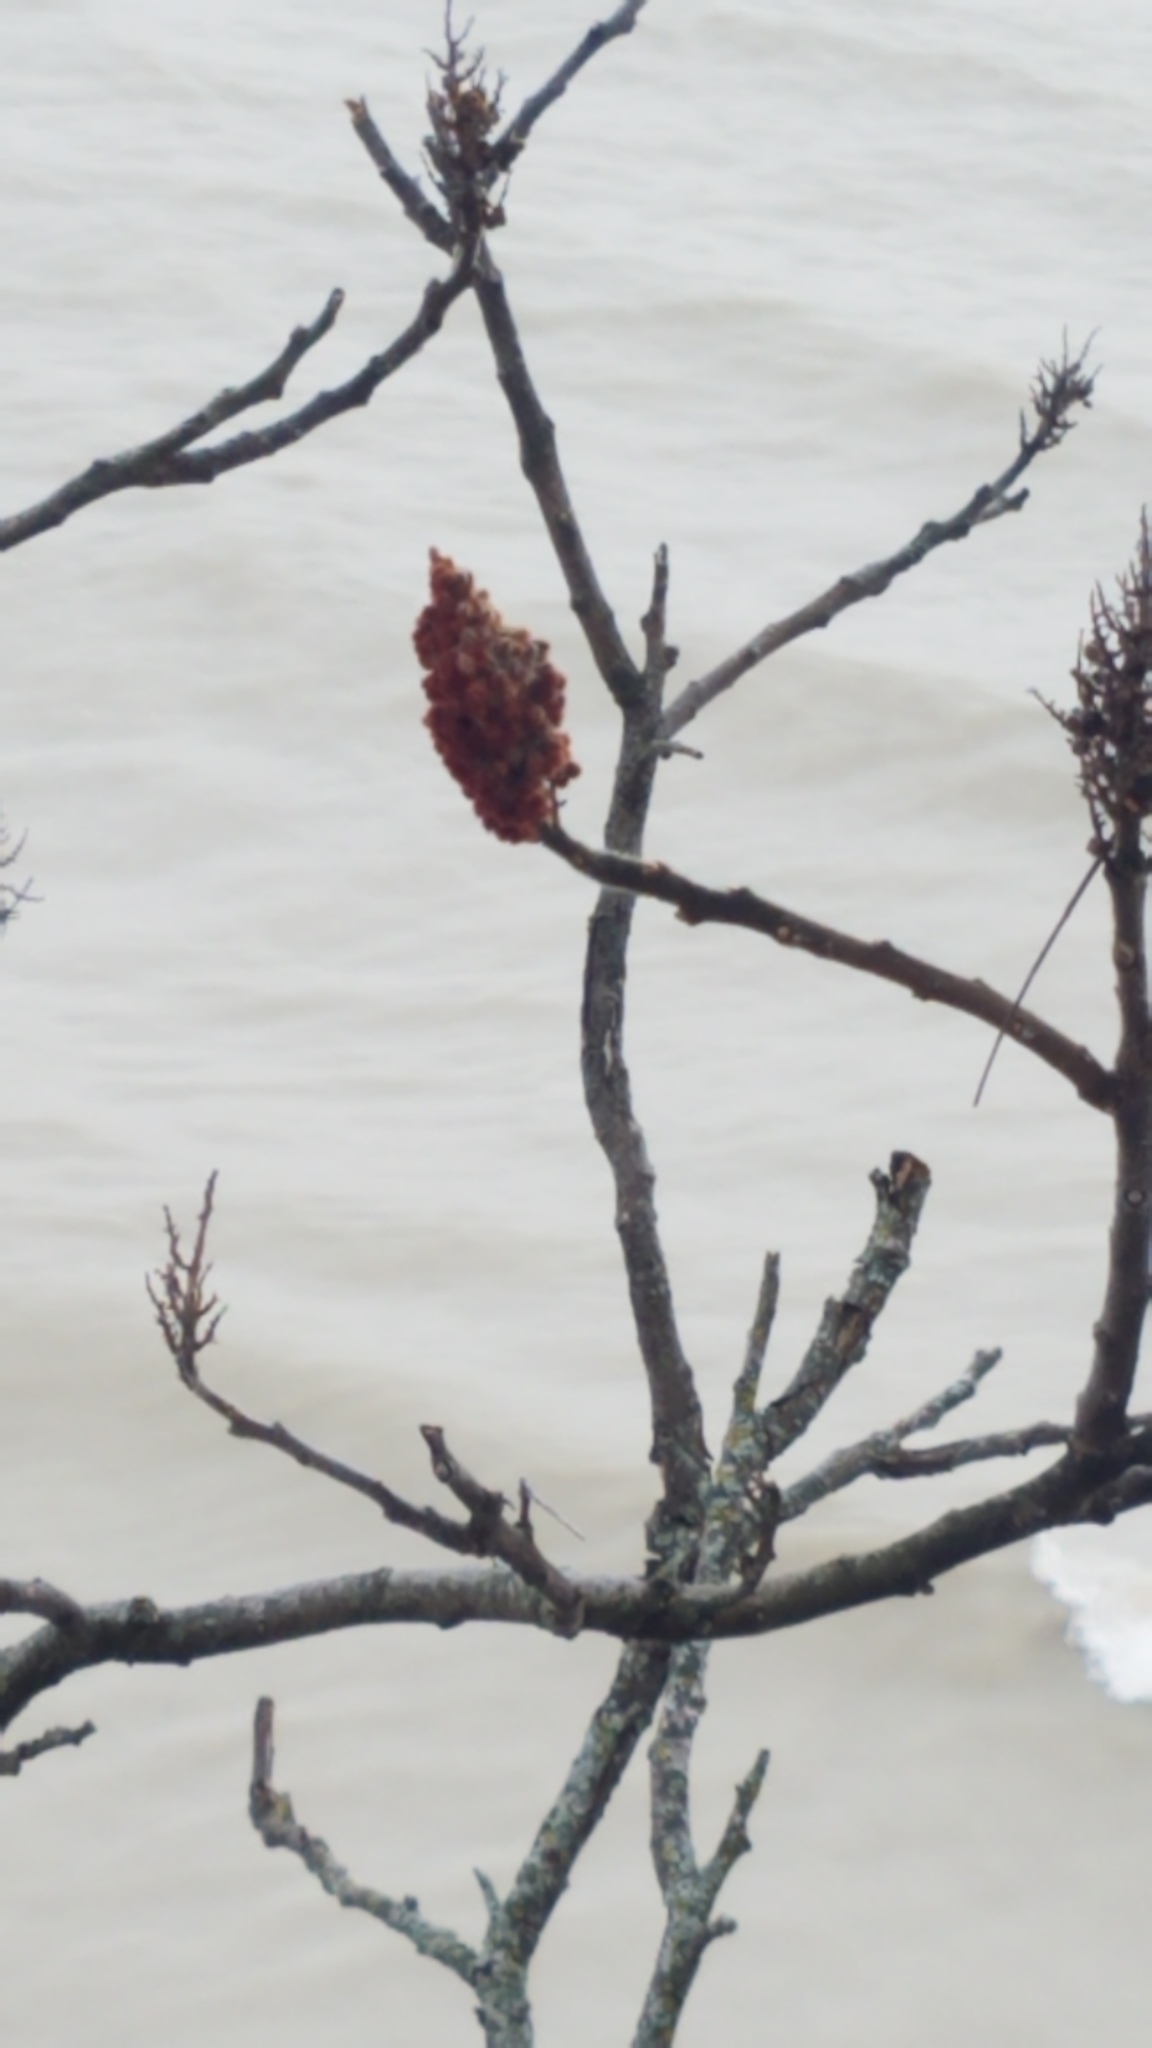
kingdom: Plantae
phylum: Tracheophyta
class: Magnoliopsida
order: Sapindales
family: Anacardiaceae
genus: Rhus
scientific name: Rhus typhina
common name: Staghorn sumac
